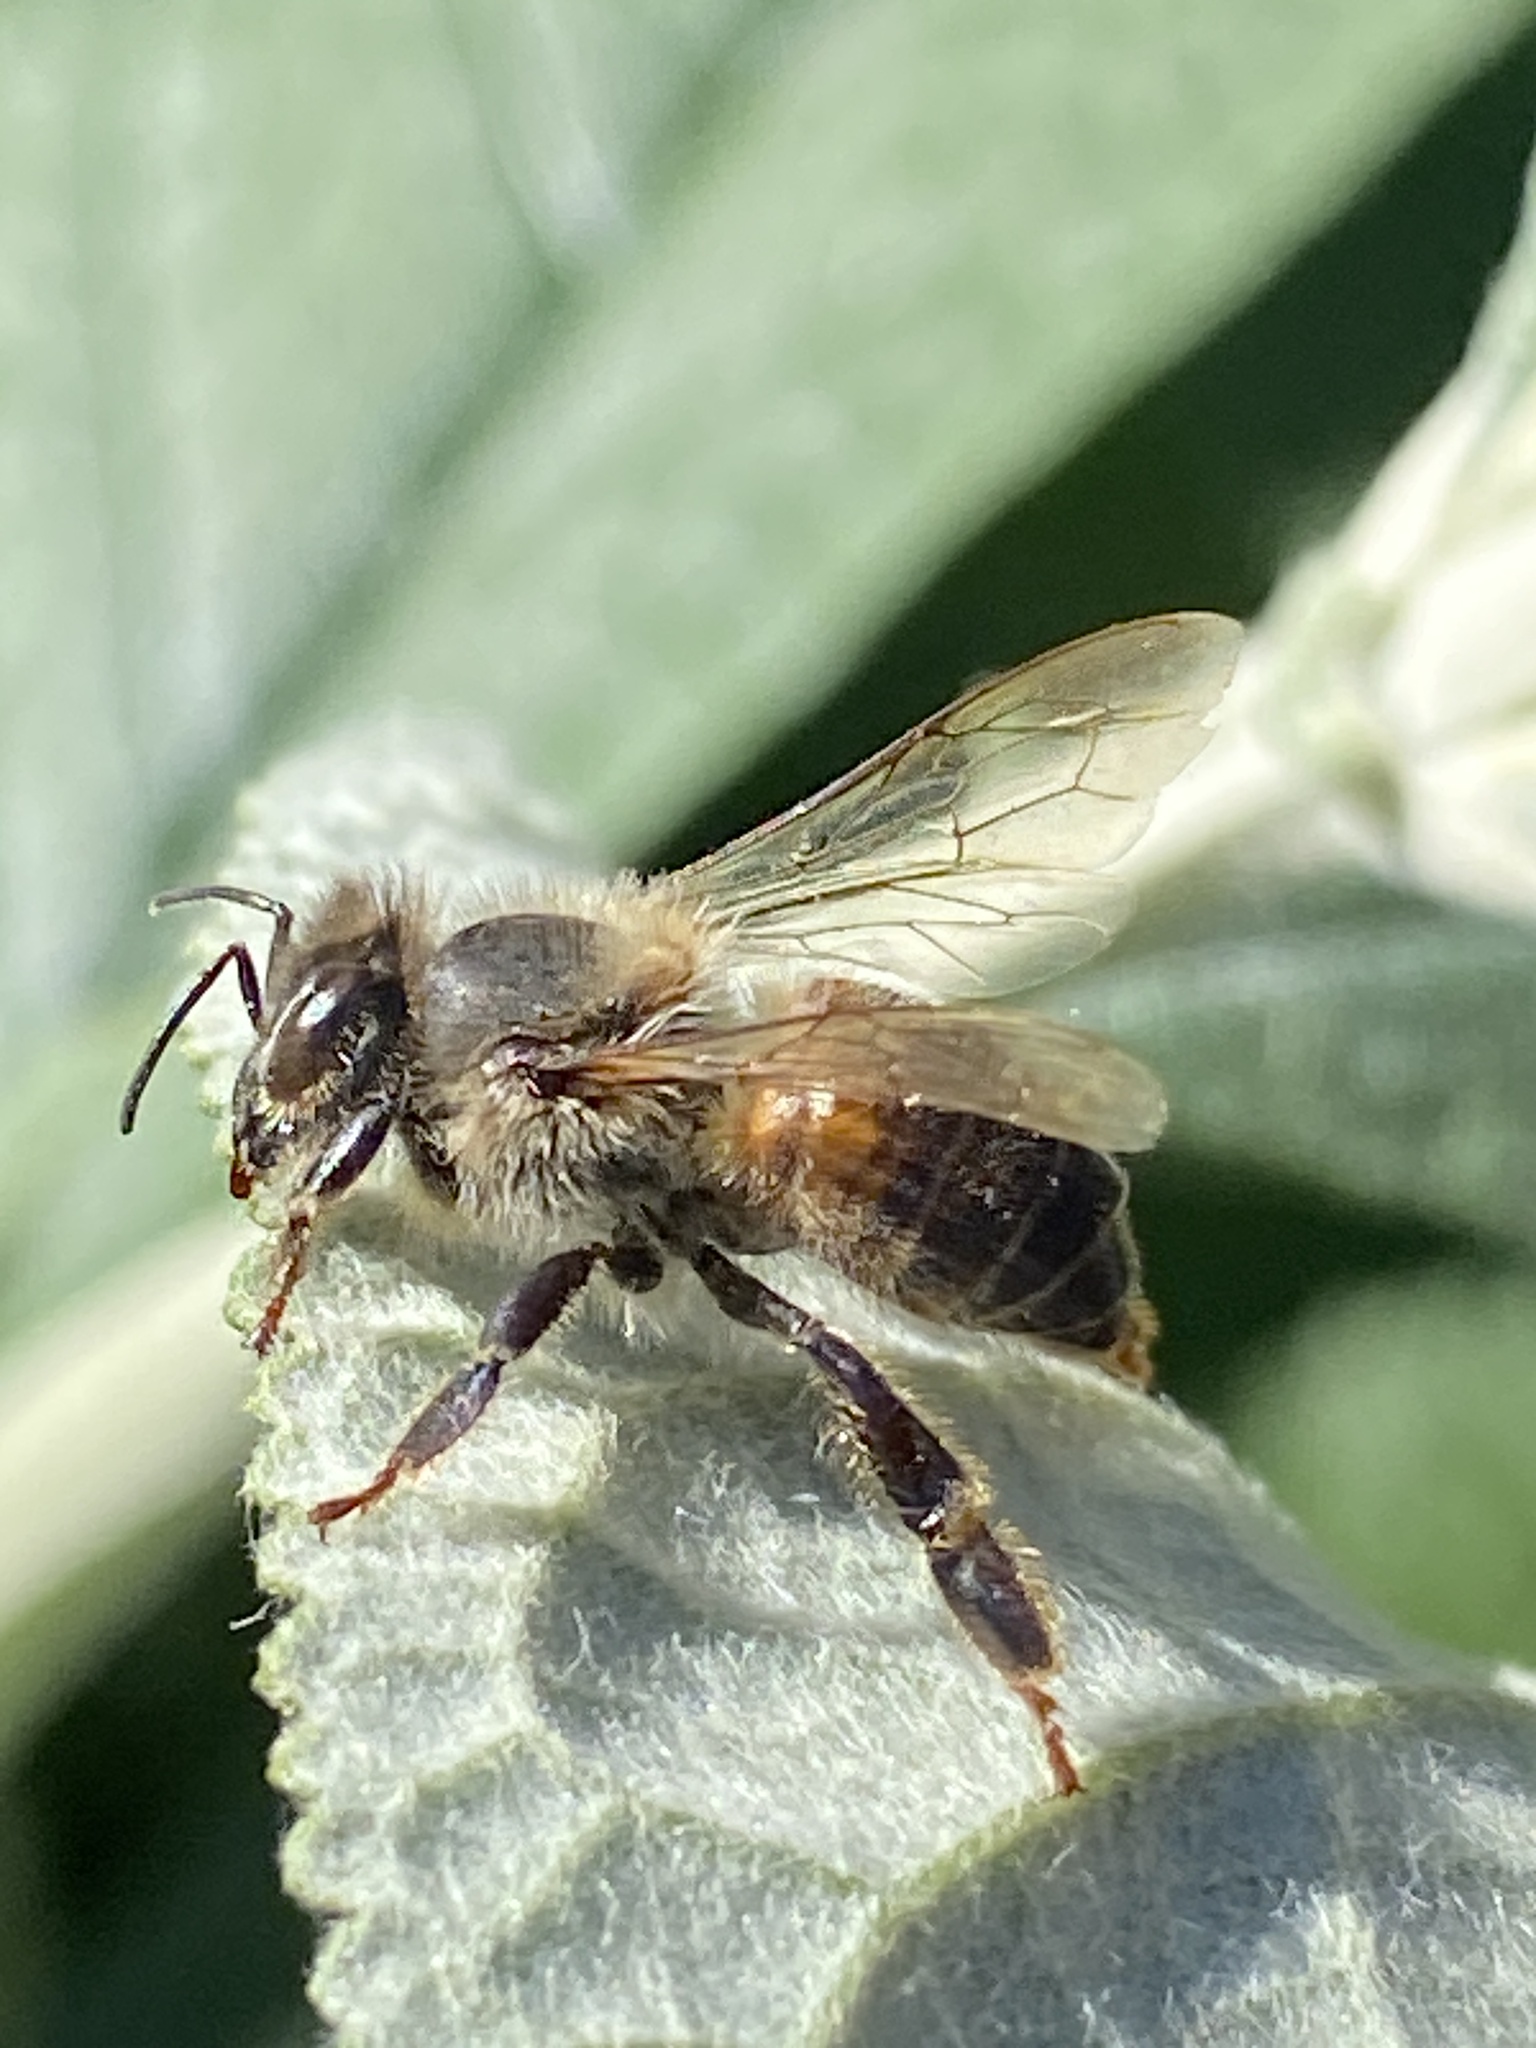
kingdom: Animalia
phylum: Arthropoda
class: Insecta
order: Hymenoptera
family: Apidae
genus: Apis
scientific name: Apis mellifera
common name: Honey bee
